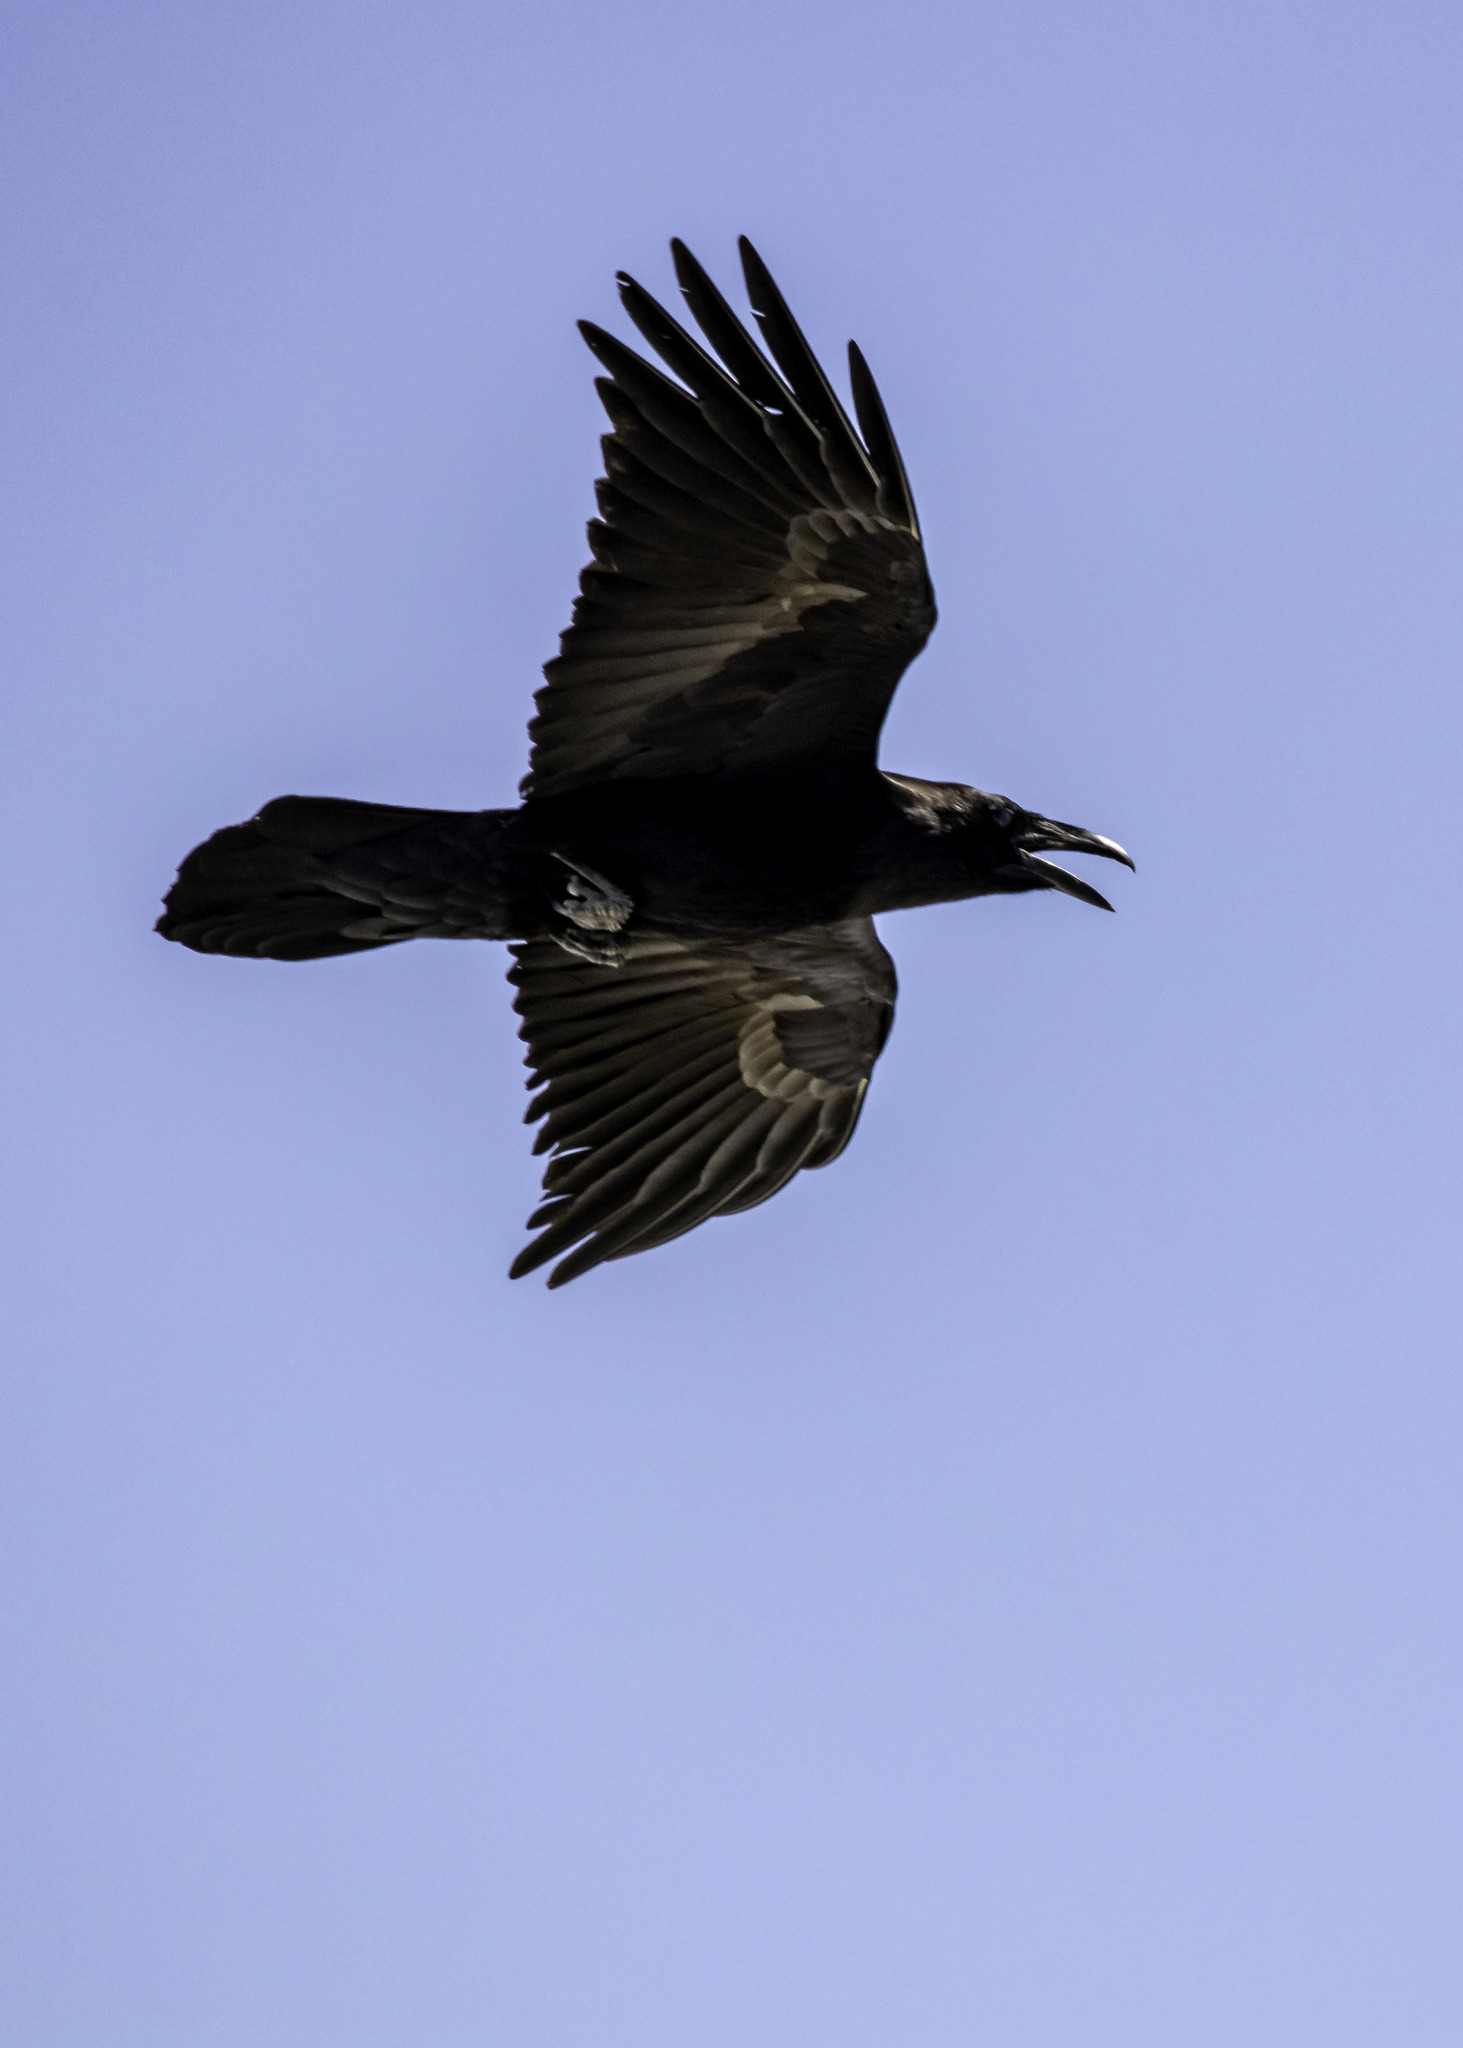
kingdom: Animalia
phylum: Chordata
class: Aves
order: Passeriformes
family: Corvidae
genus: Corvus
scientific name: Corvus corax
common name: Common raven
